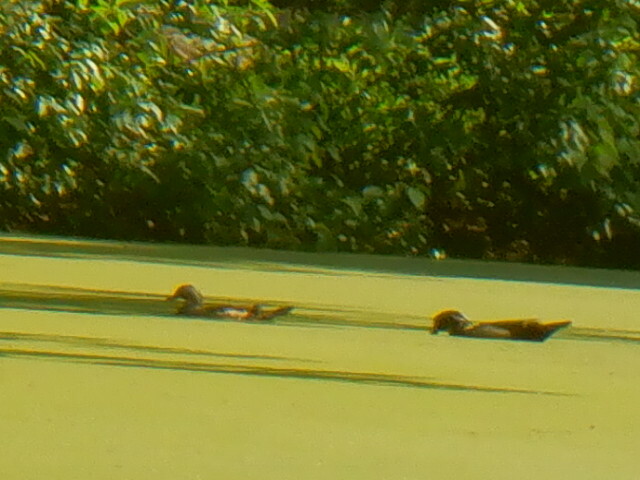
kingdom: Animalia
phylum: Chordata
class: Aves
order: Anseriformes
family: Anatidae
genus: Aix
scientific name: Aix sponsa
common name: Wood duck
